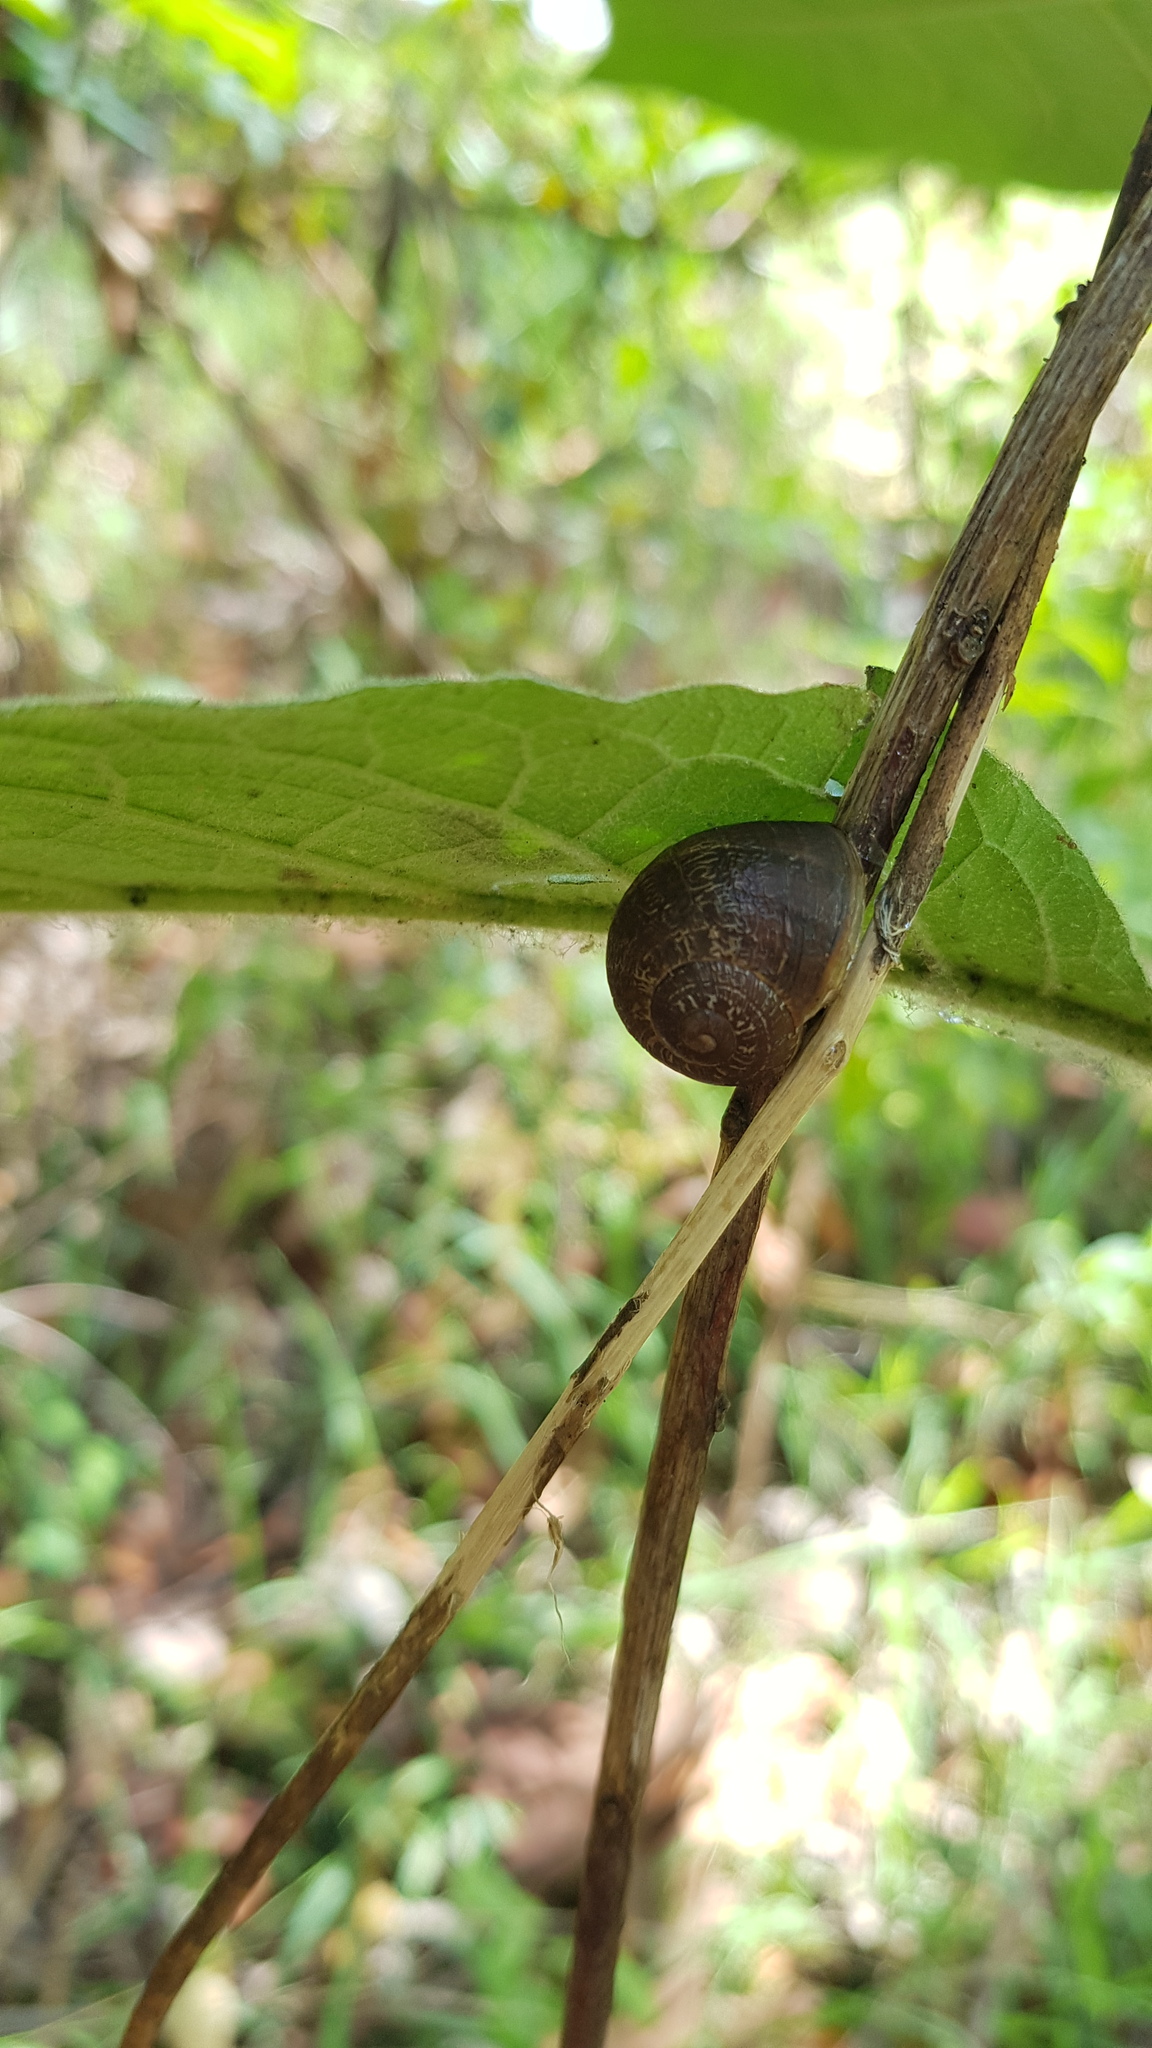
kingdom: Animalia
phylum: Mollusca
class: Gastropoda
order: Stylommatophora
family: Helicidae
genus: Cornu
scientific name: Cornu aspersum
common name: Brown garden snail
